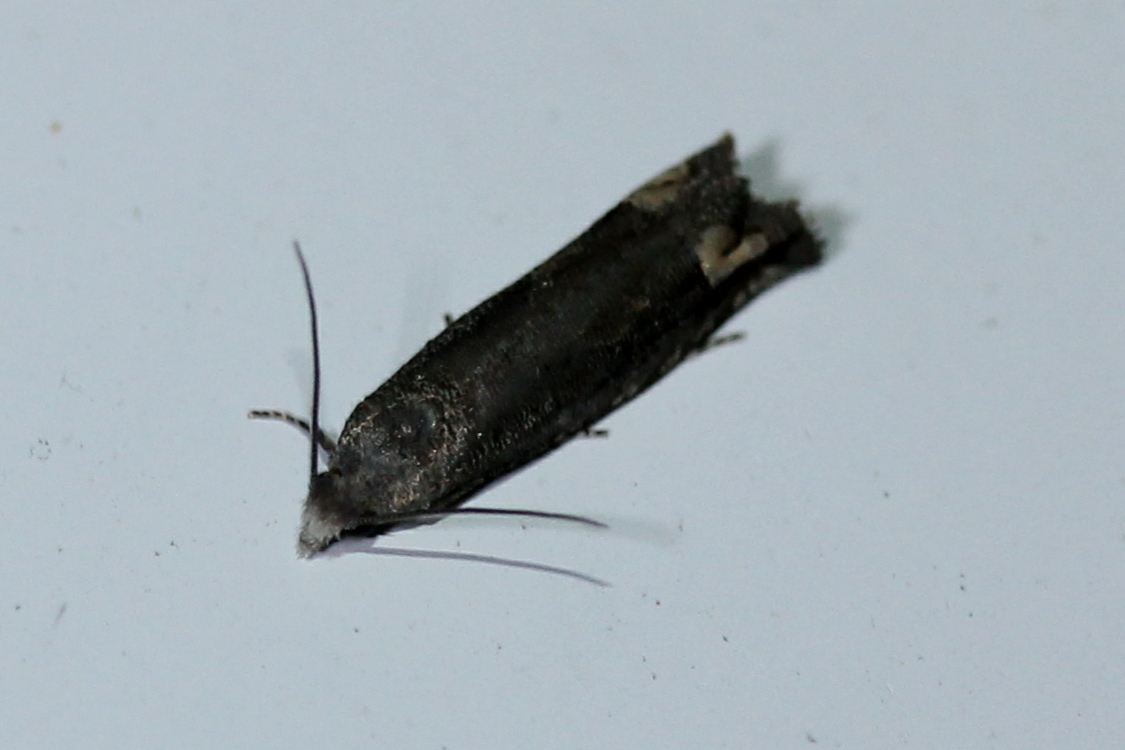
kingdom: Animalia
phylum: Arthropoda
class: Insecta
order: Lepidoptera
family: Tortricidae
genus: Epiblema
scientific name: Epiblema strenuana
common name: Ragweed borer moth
